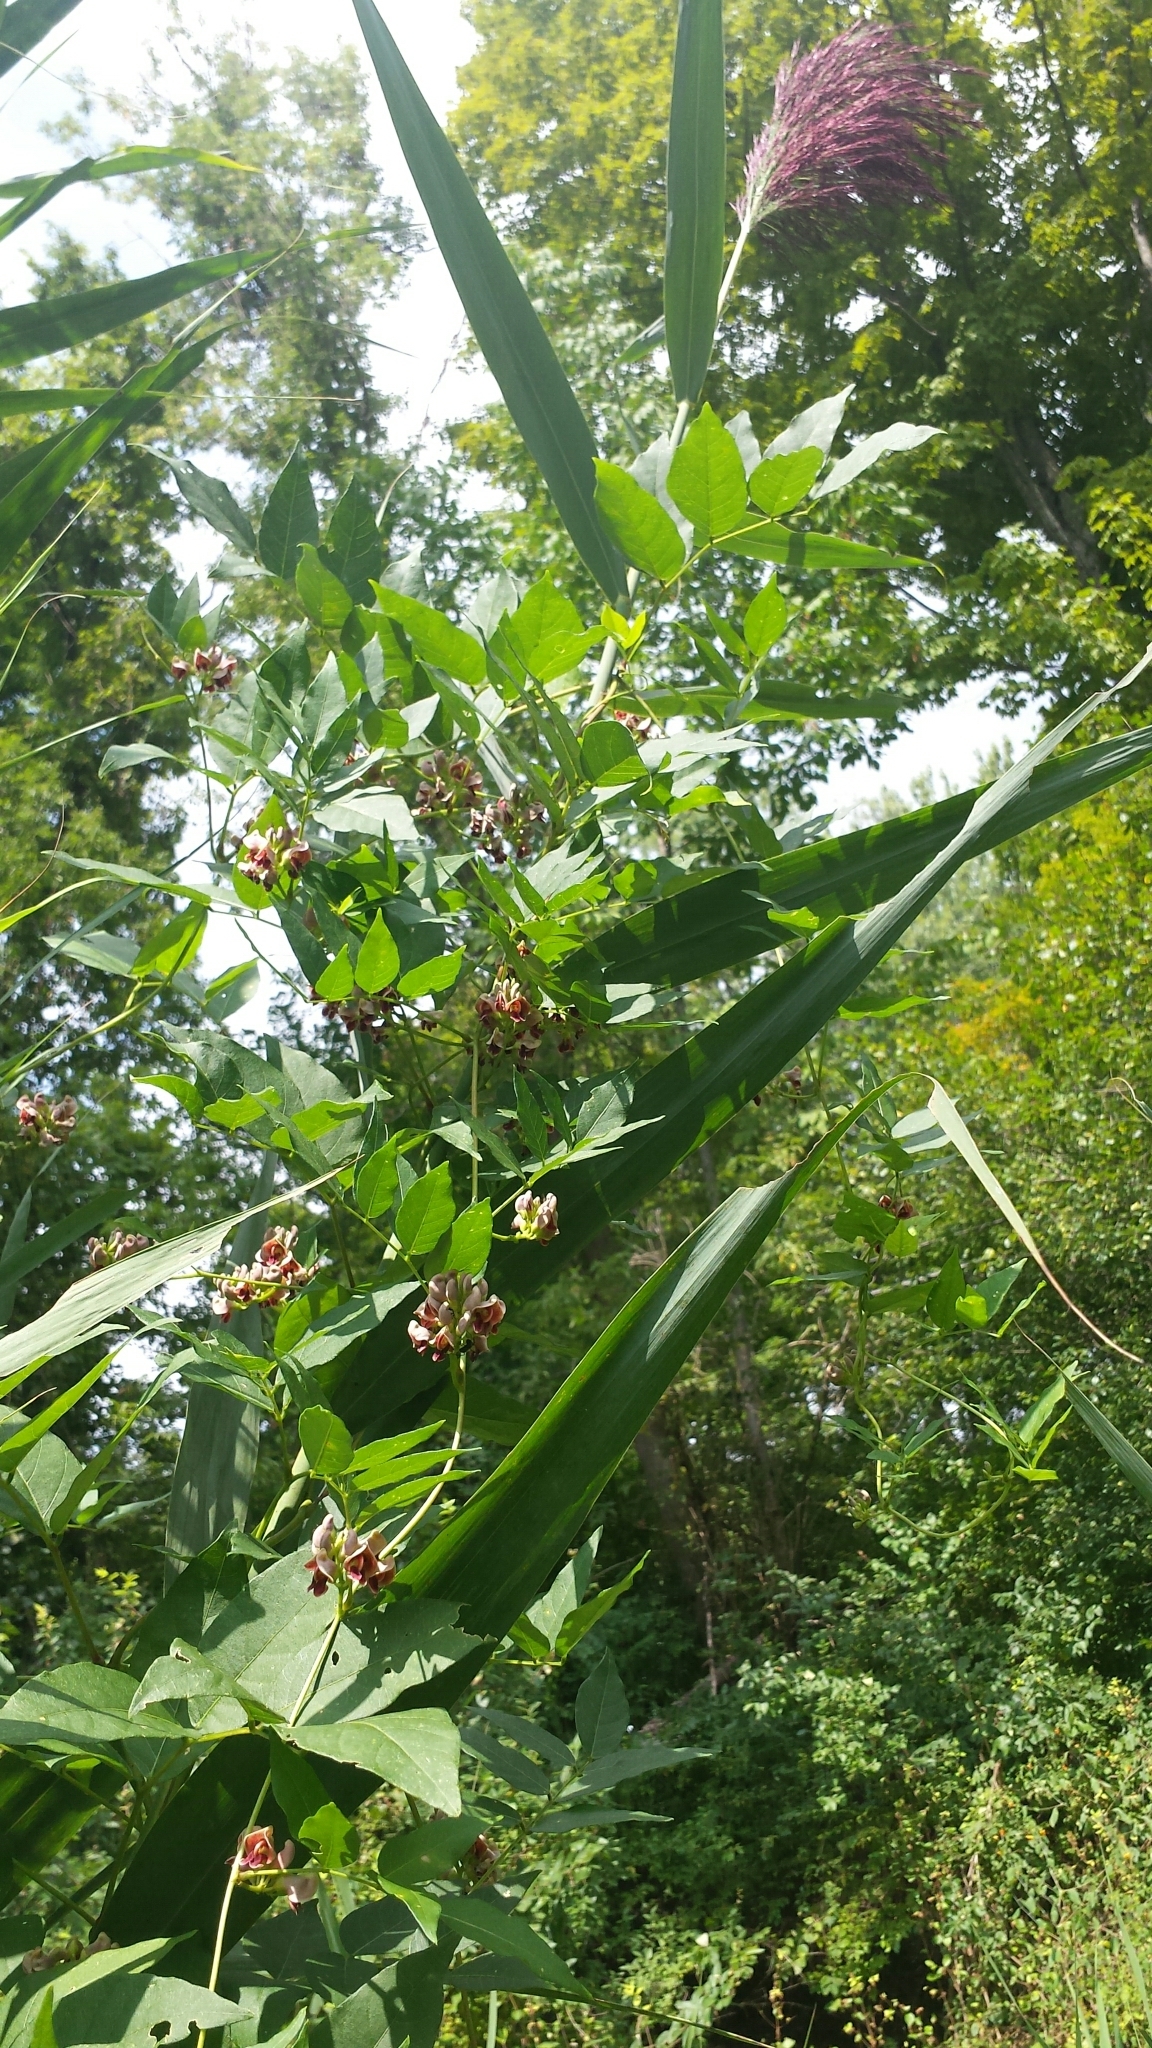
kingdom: Plantae
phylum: Tracheophyta
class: Magnoliopsida
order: Fabales
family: Fabaceae
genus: Apios
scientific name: Apios americana
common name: American potato-bean
